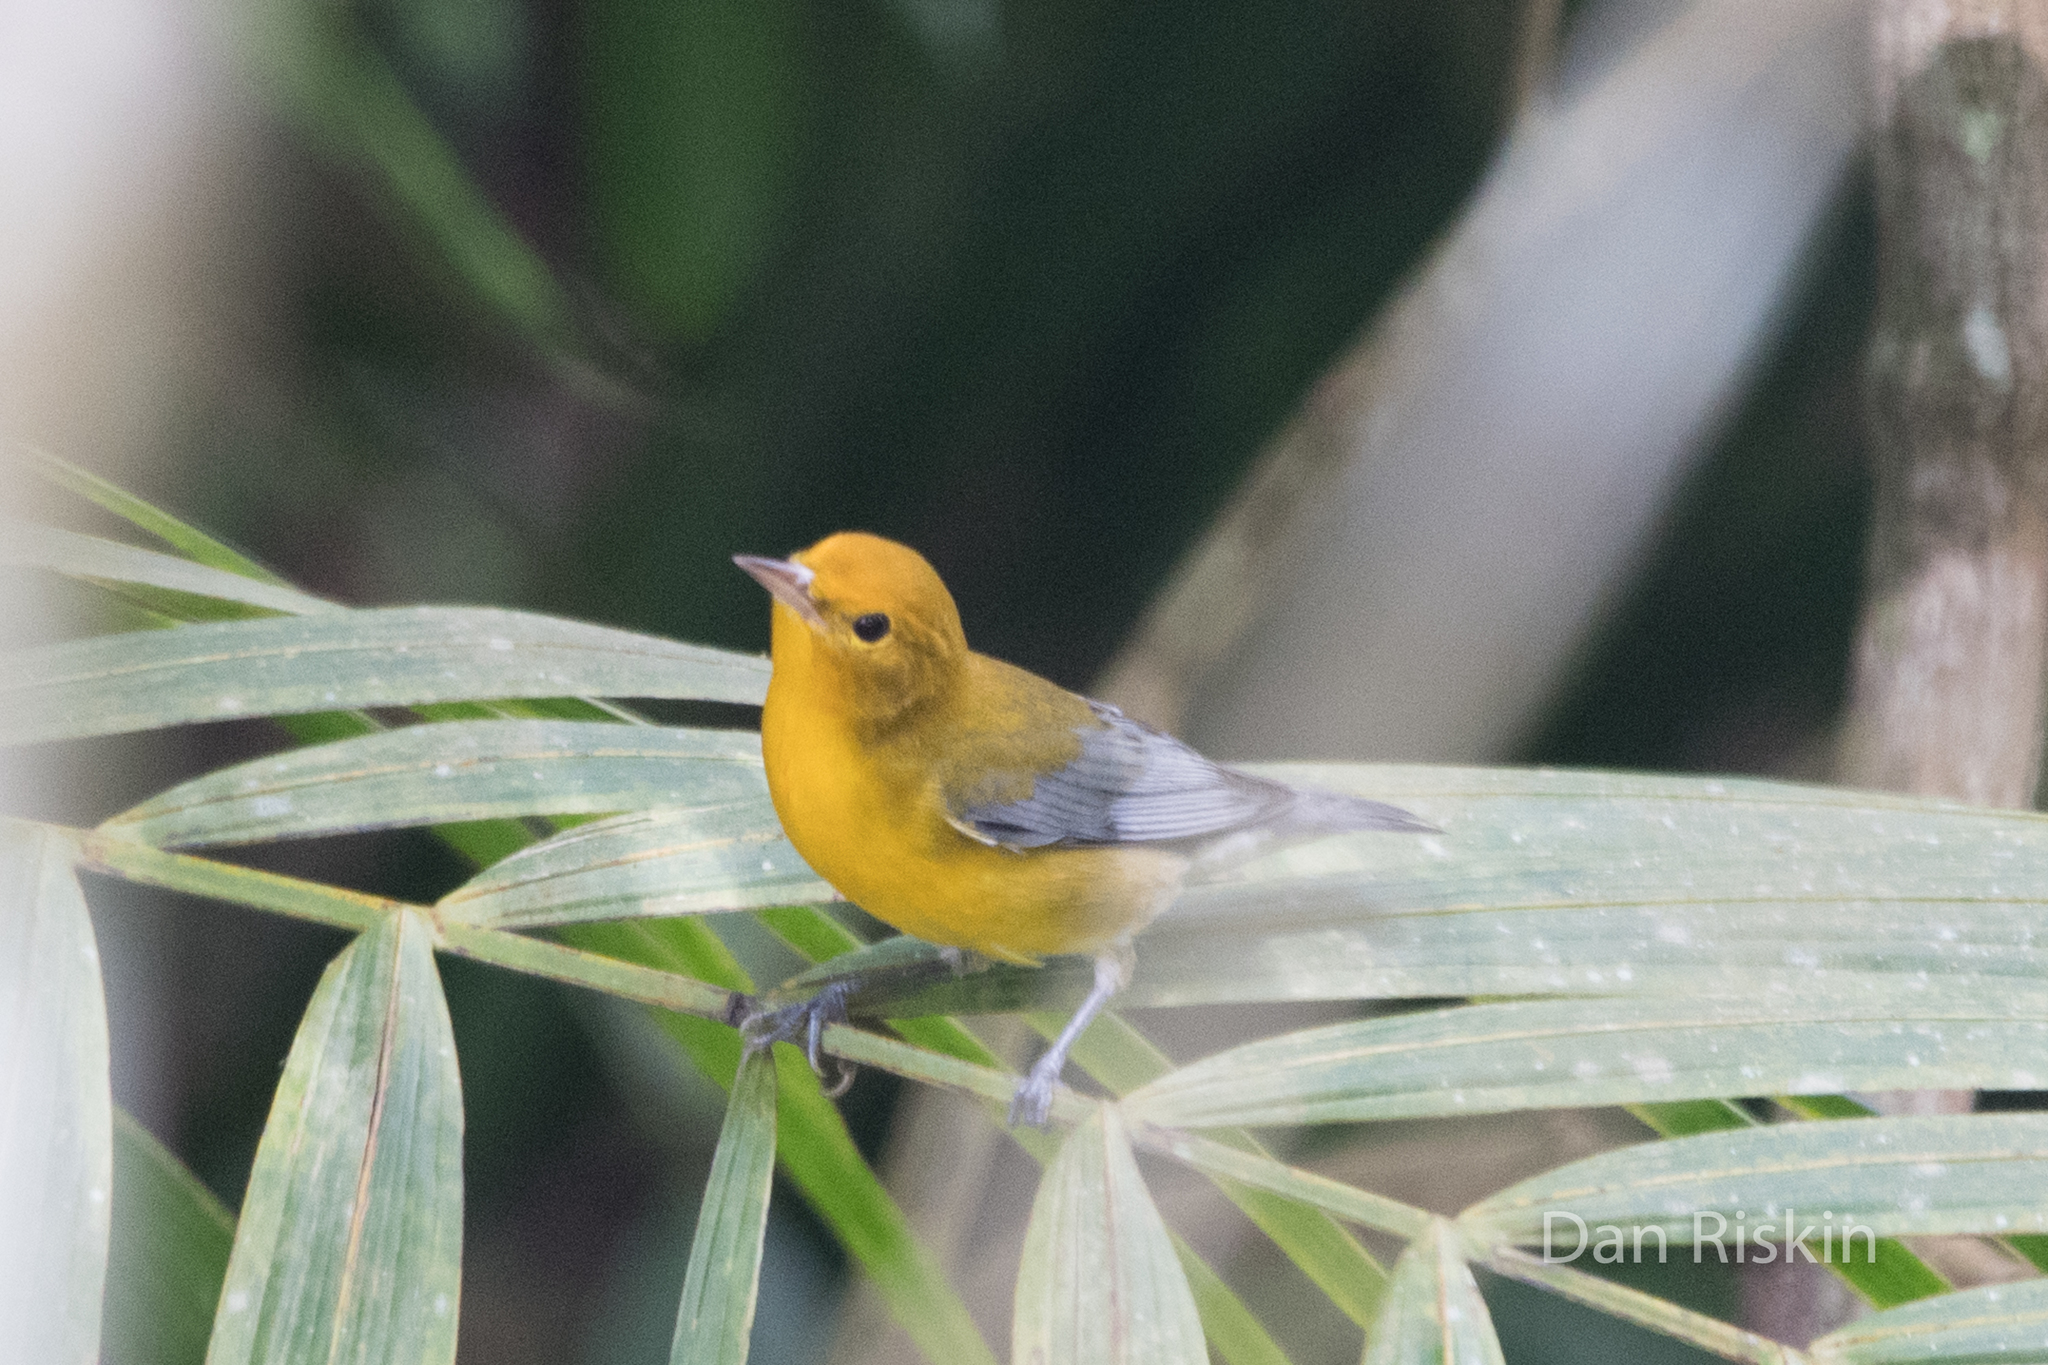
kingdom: Animalia
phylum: Chordata
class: Aves
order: Passeriformes
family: Parulidae
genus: Protonotaria
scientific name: Protonotaria citrea
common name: Prothonotary warbler
